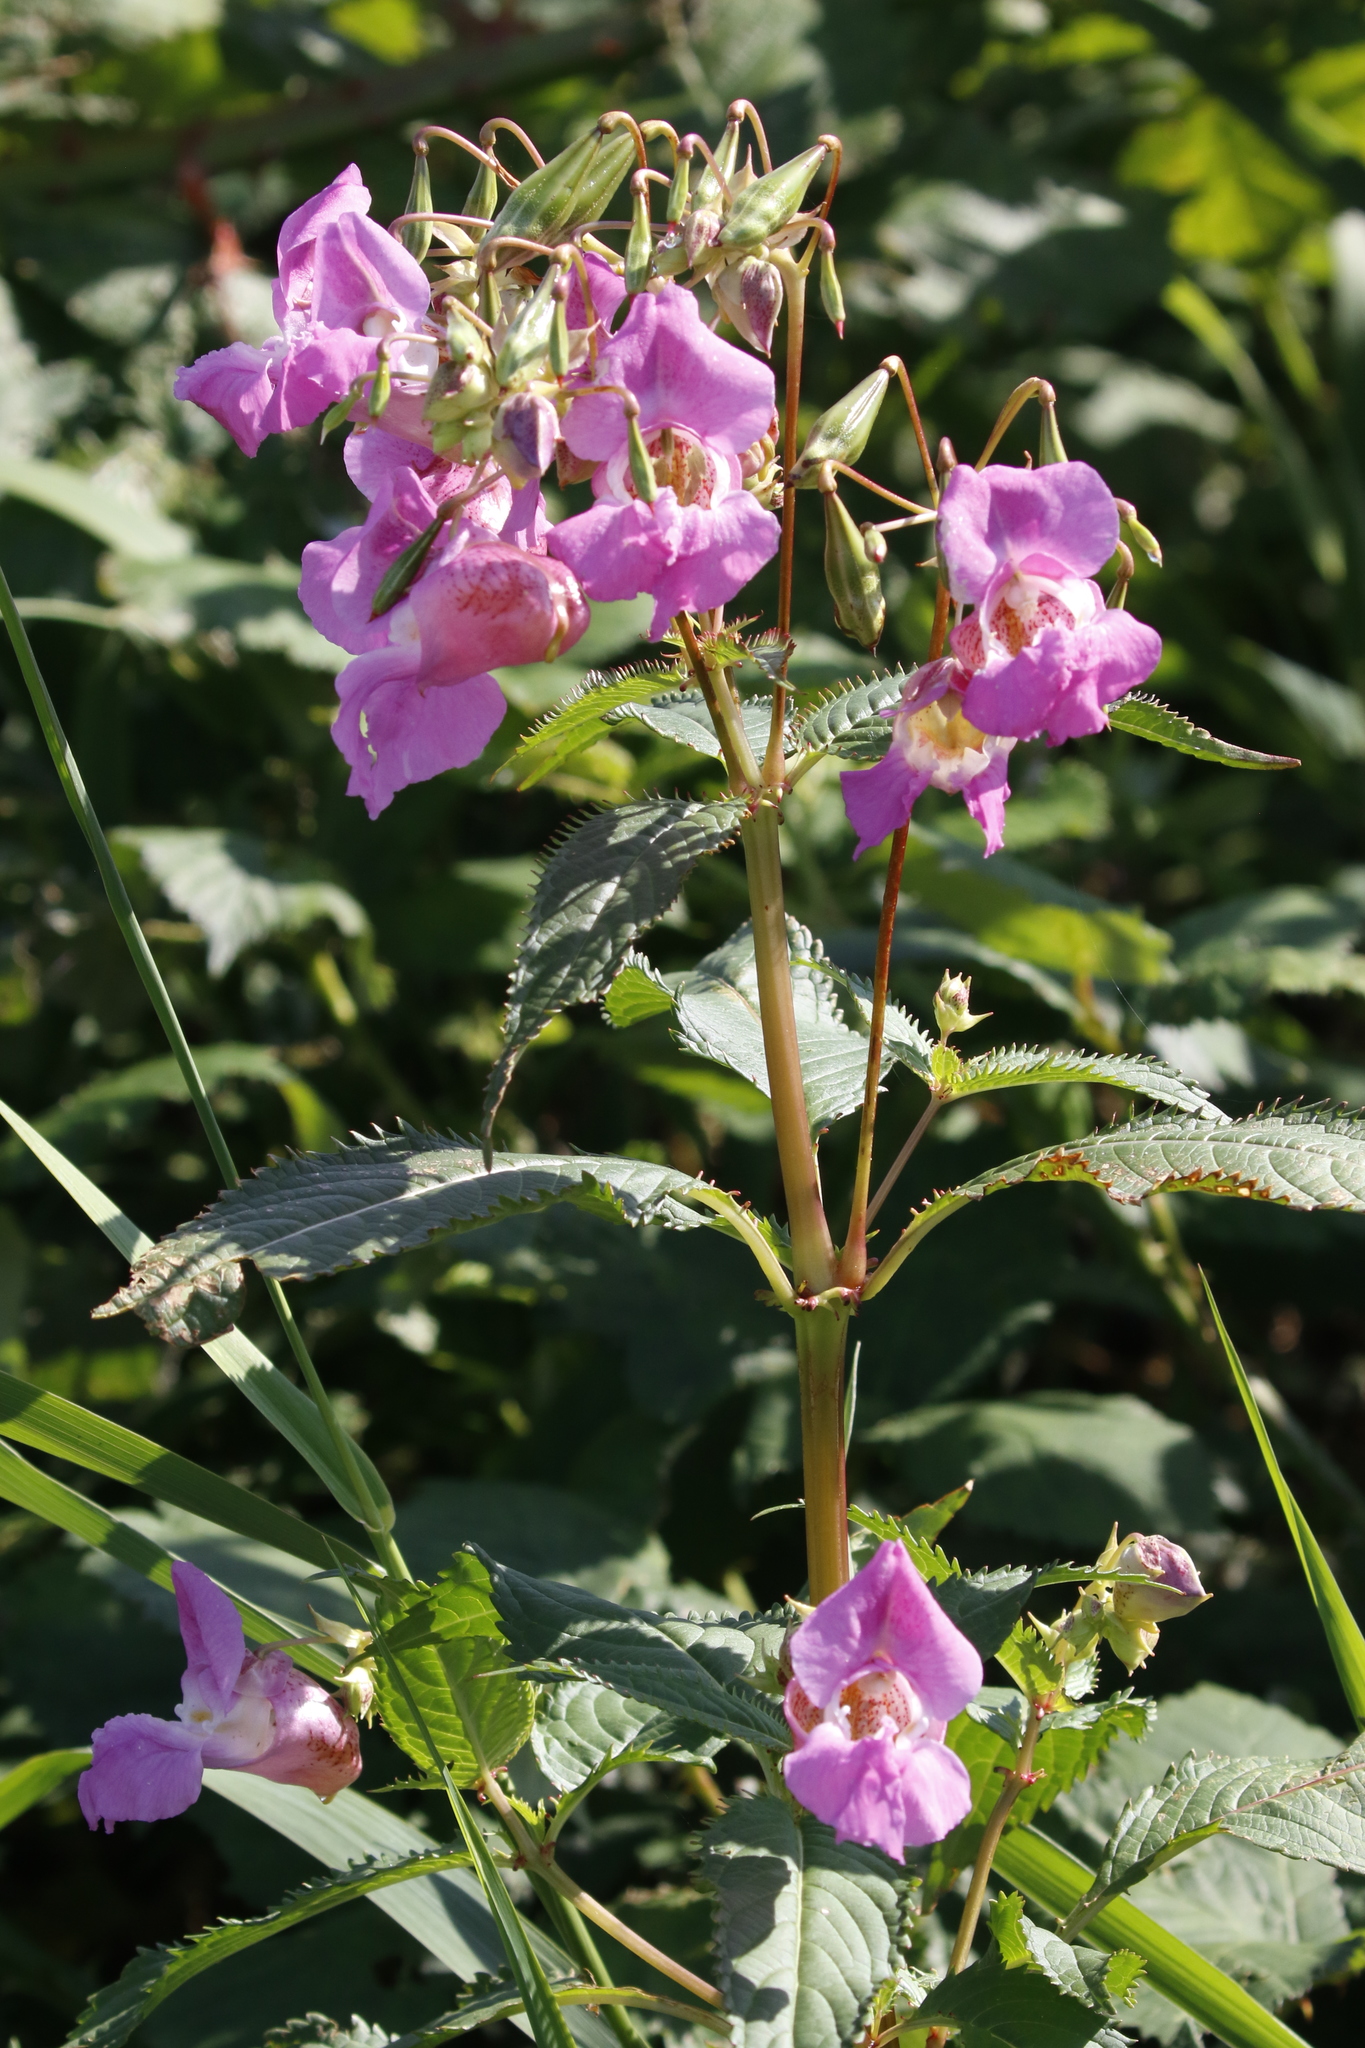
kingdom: Plantae
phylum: Tracheophyta
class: Magnoliopsida
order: Ericales
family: Balsaminaceae
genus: Impatiens
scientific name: Impatiens glandulifera
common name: Himalayan balsam
